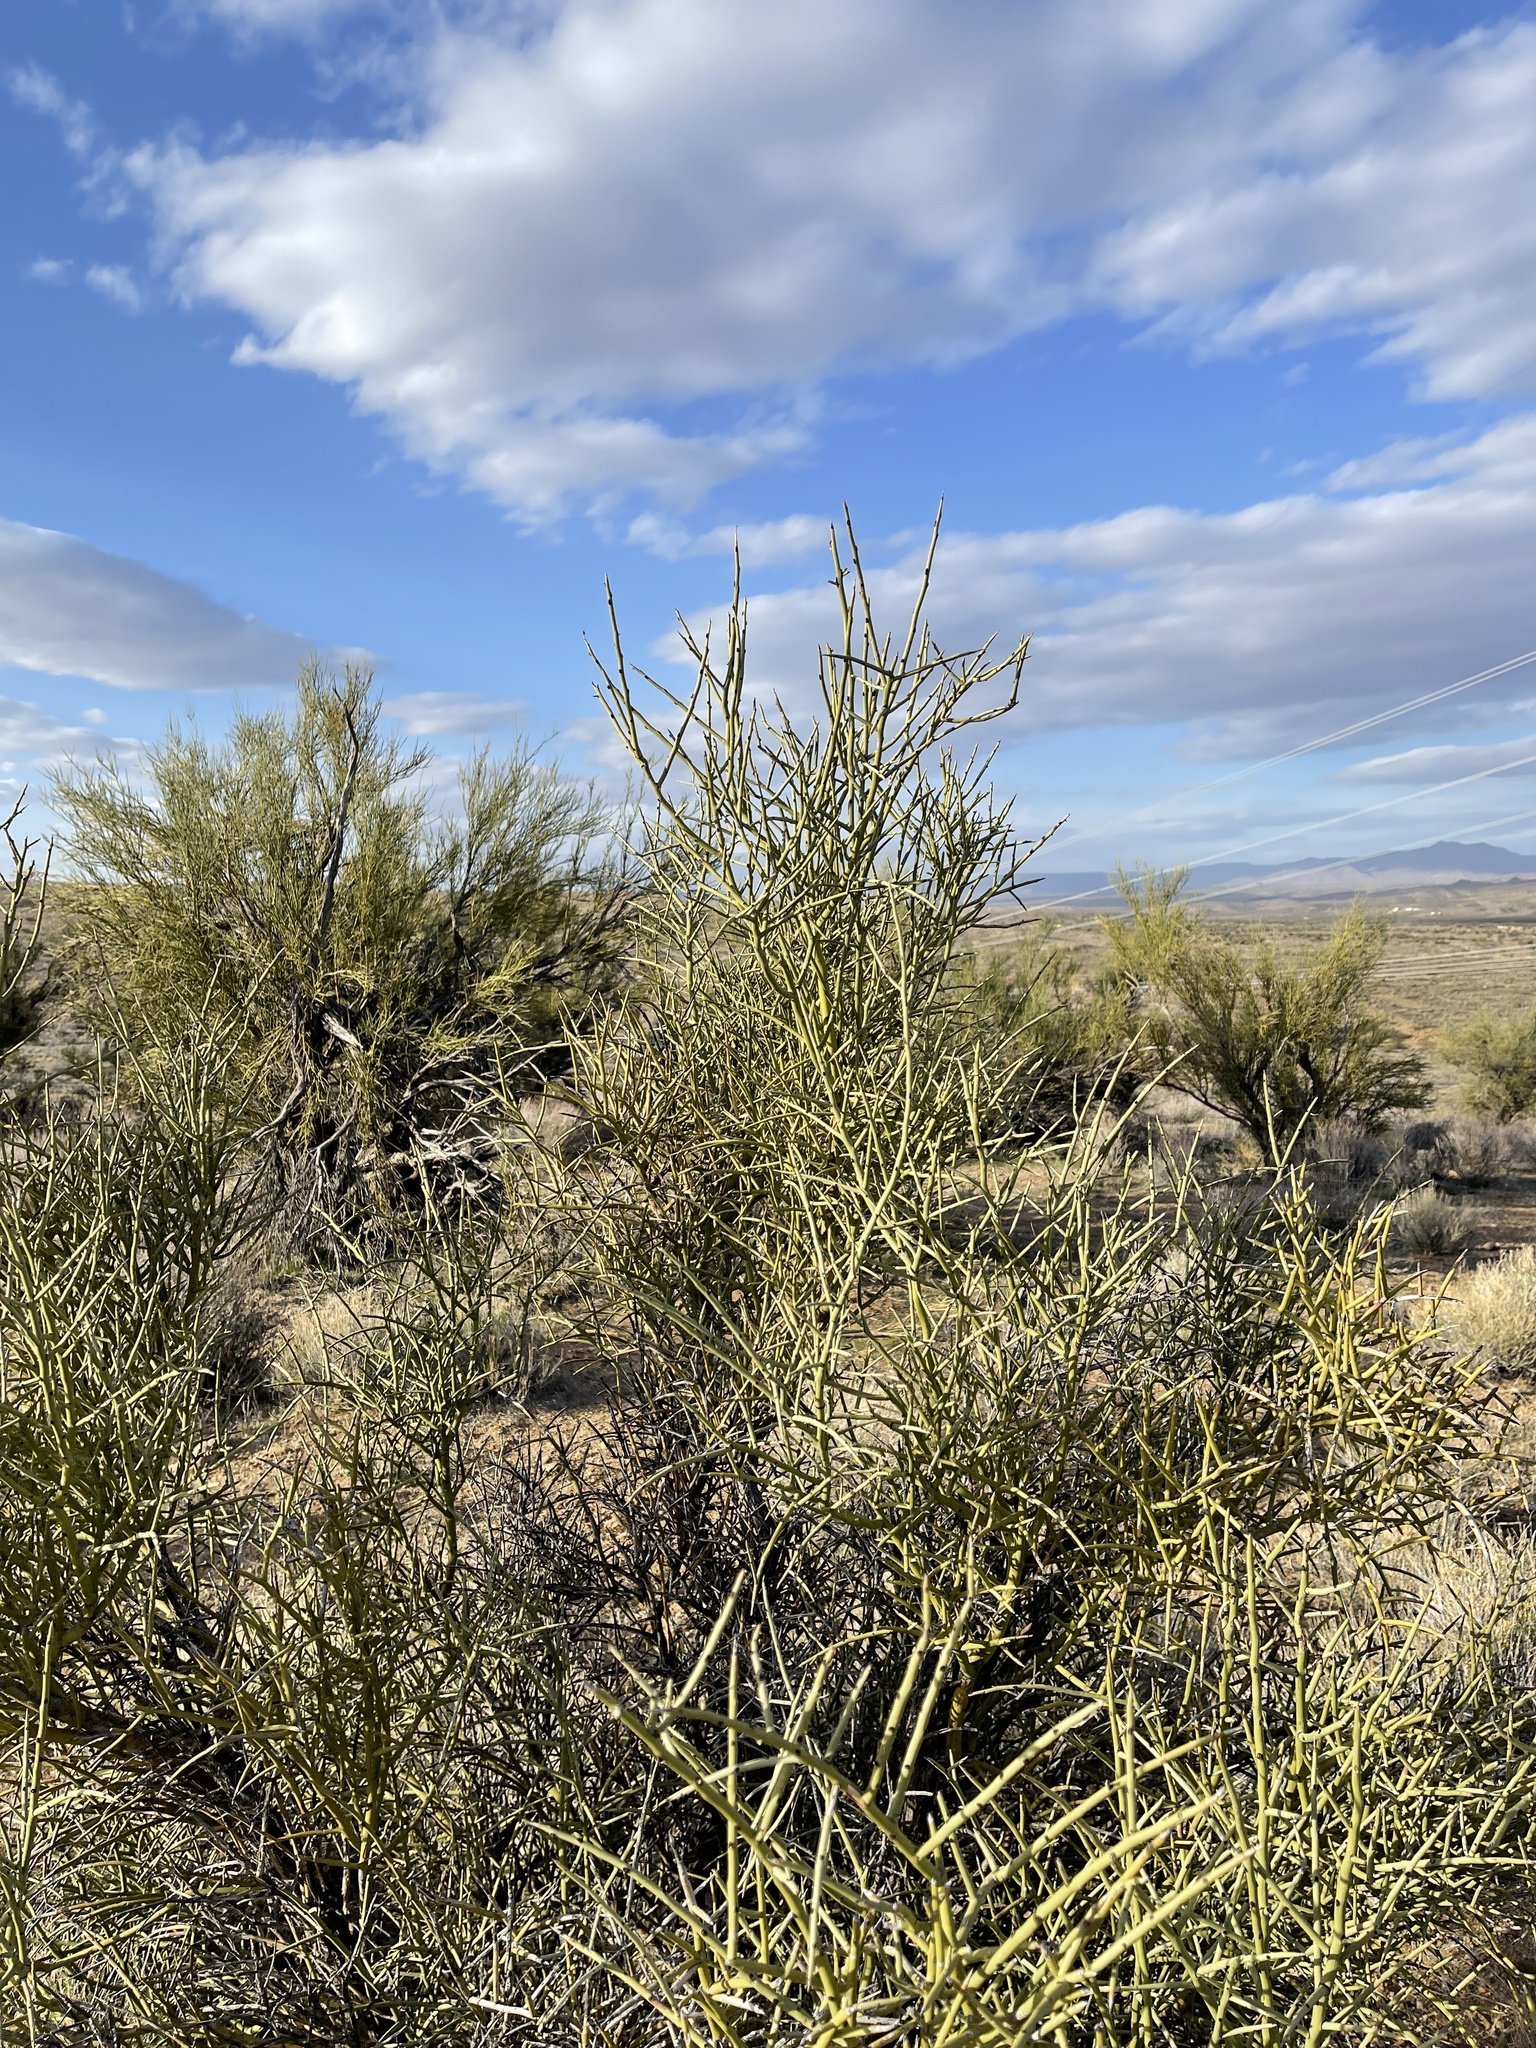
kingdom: Plantae
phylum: Tracheophyta
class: Magnoliopsida
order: Celastrales
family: Celastraceae
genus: Canotia
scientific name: Canotia holacantha
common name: Crucifixion thorns
